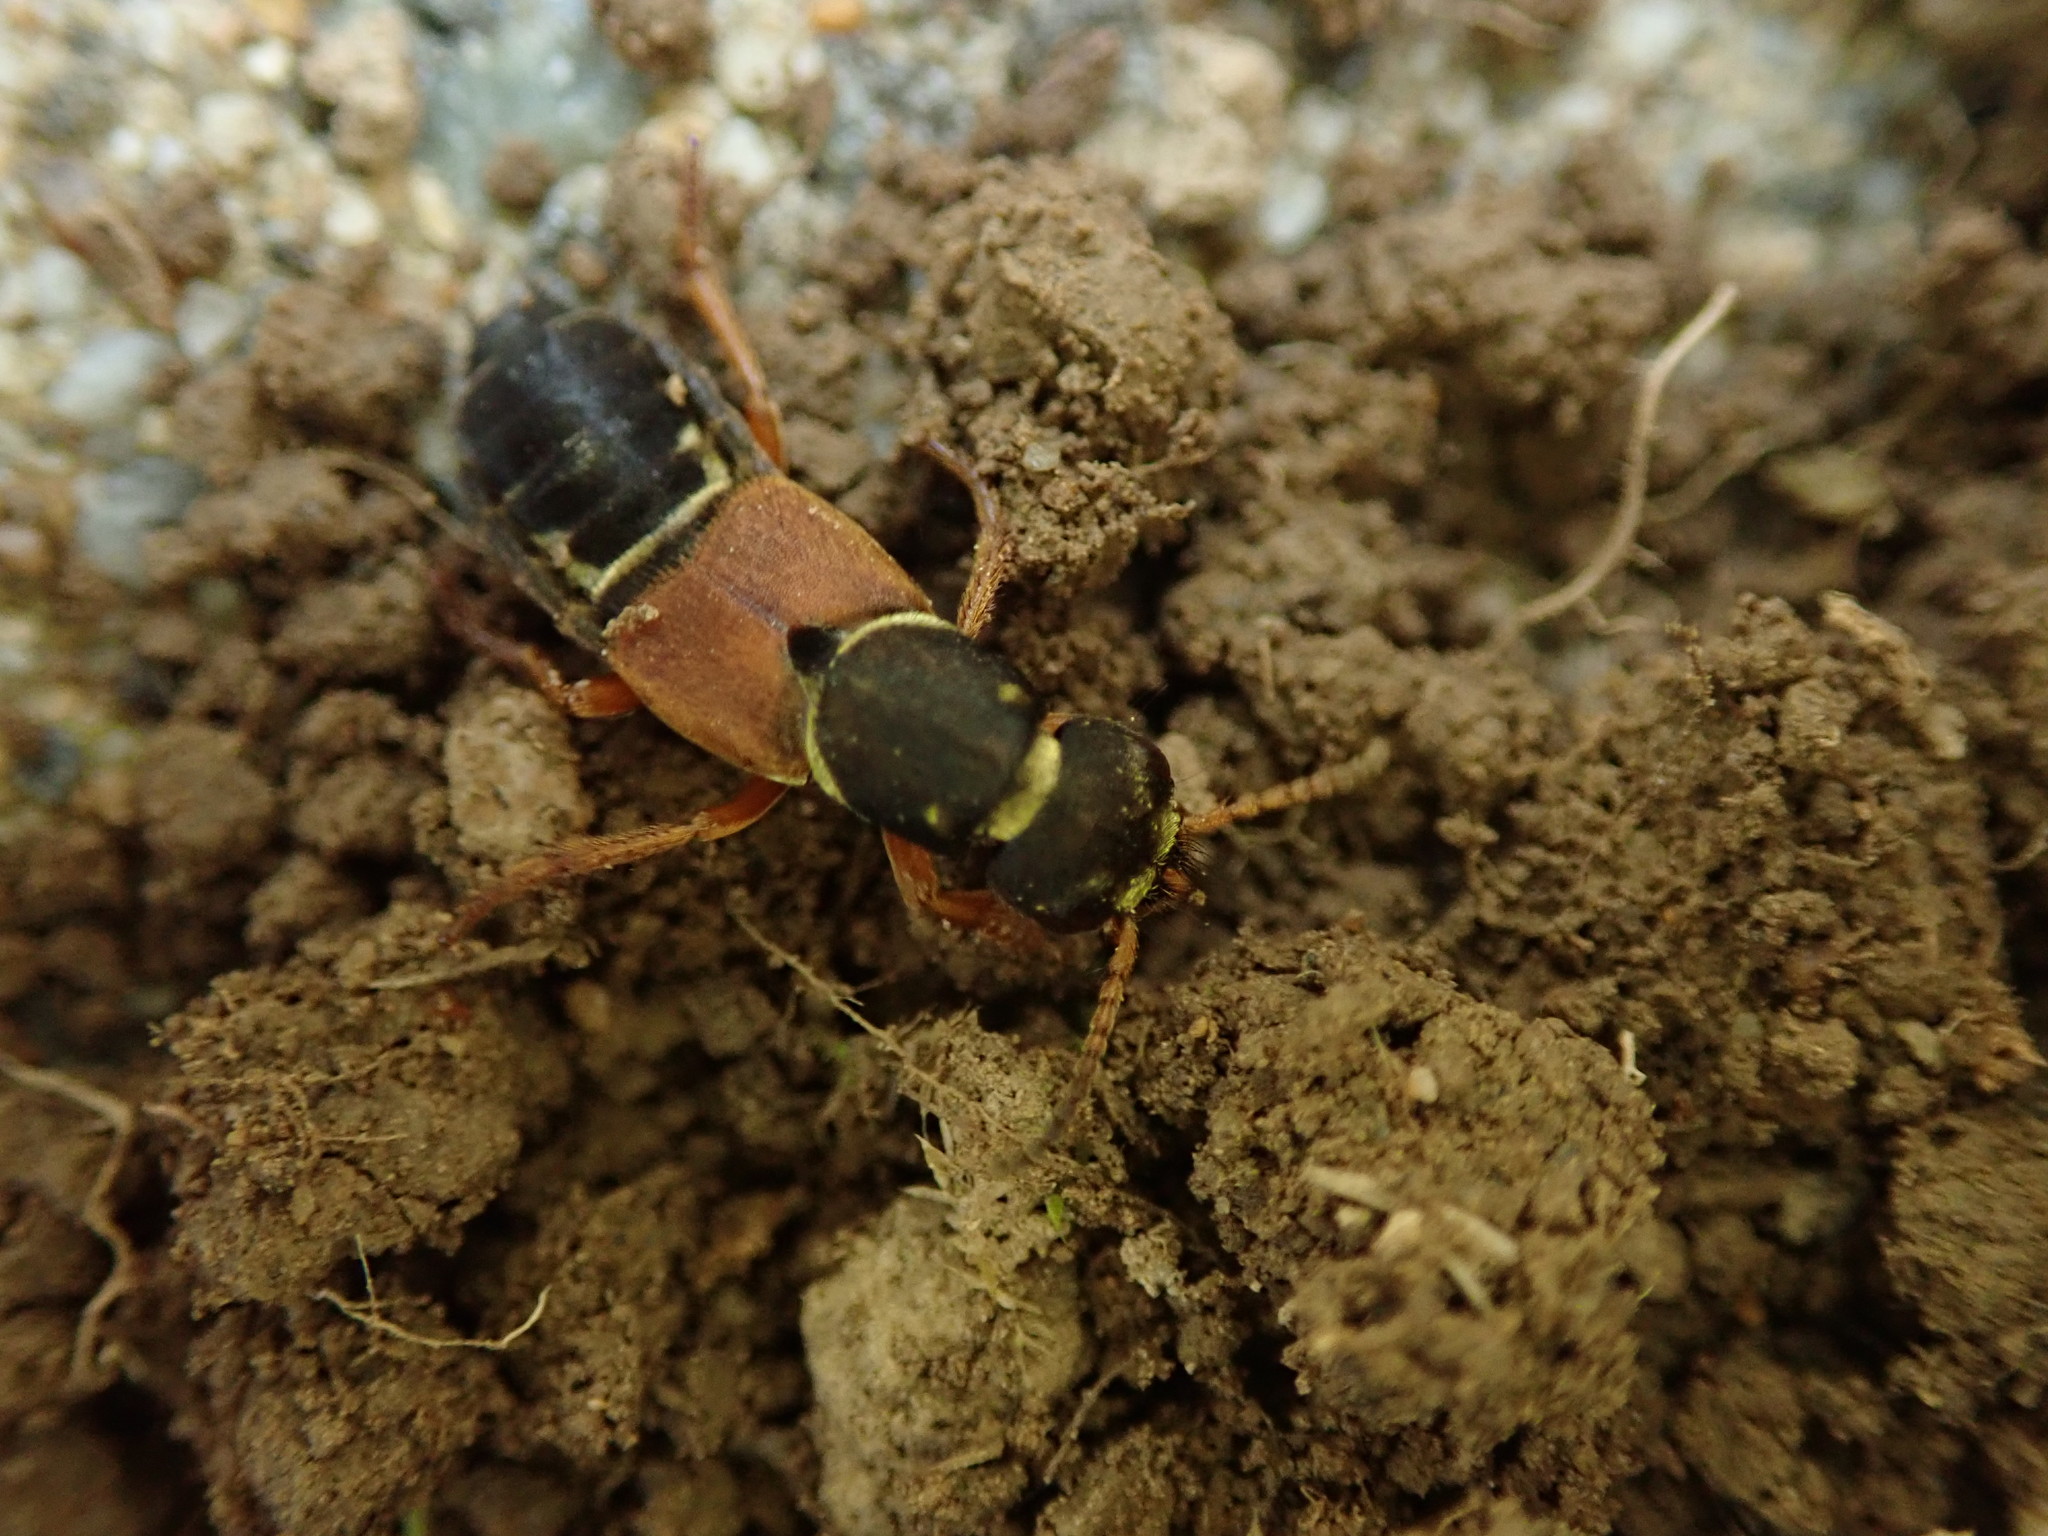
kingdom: Animalia
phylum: Arthropoda
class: Insecta
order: Coleoptera
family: Staphylinidae
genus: Staphylinus
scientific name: Staphylinus dimidiaticornis
